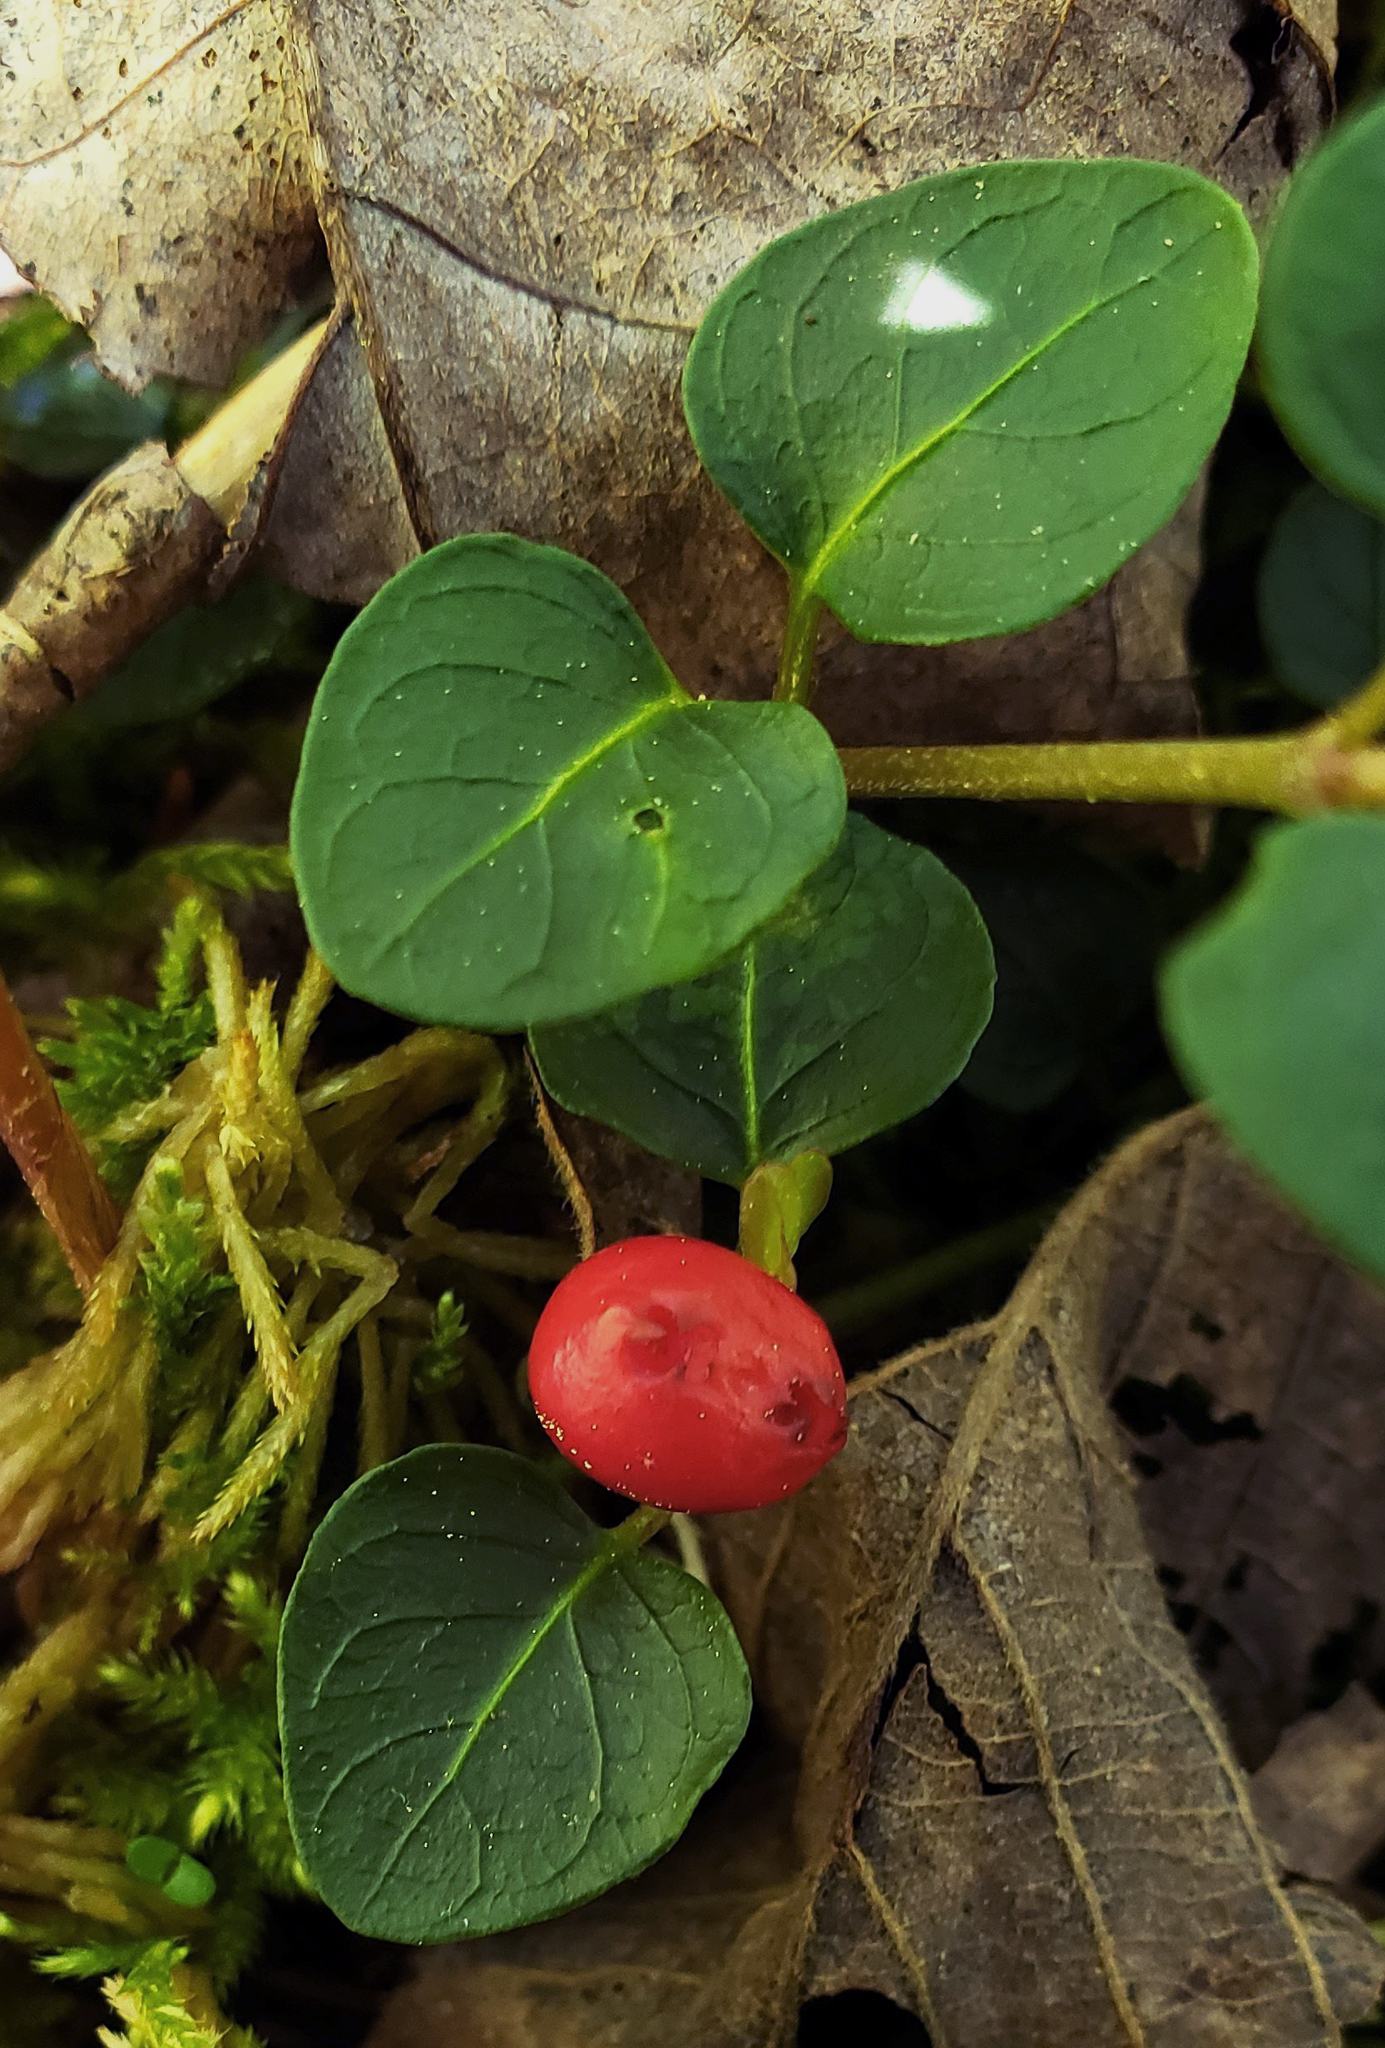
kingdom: Plantae
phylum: Tracheophyta
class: Magnoliopsida
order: Gentianales
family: Rubiaceae
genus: Mitchella
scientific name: Mitchella repens
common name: Partridge-berry
